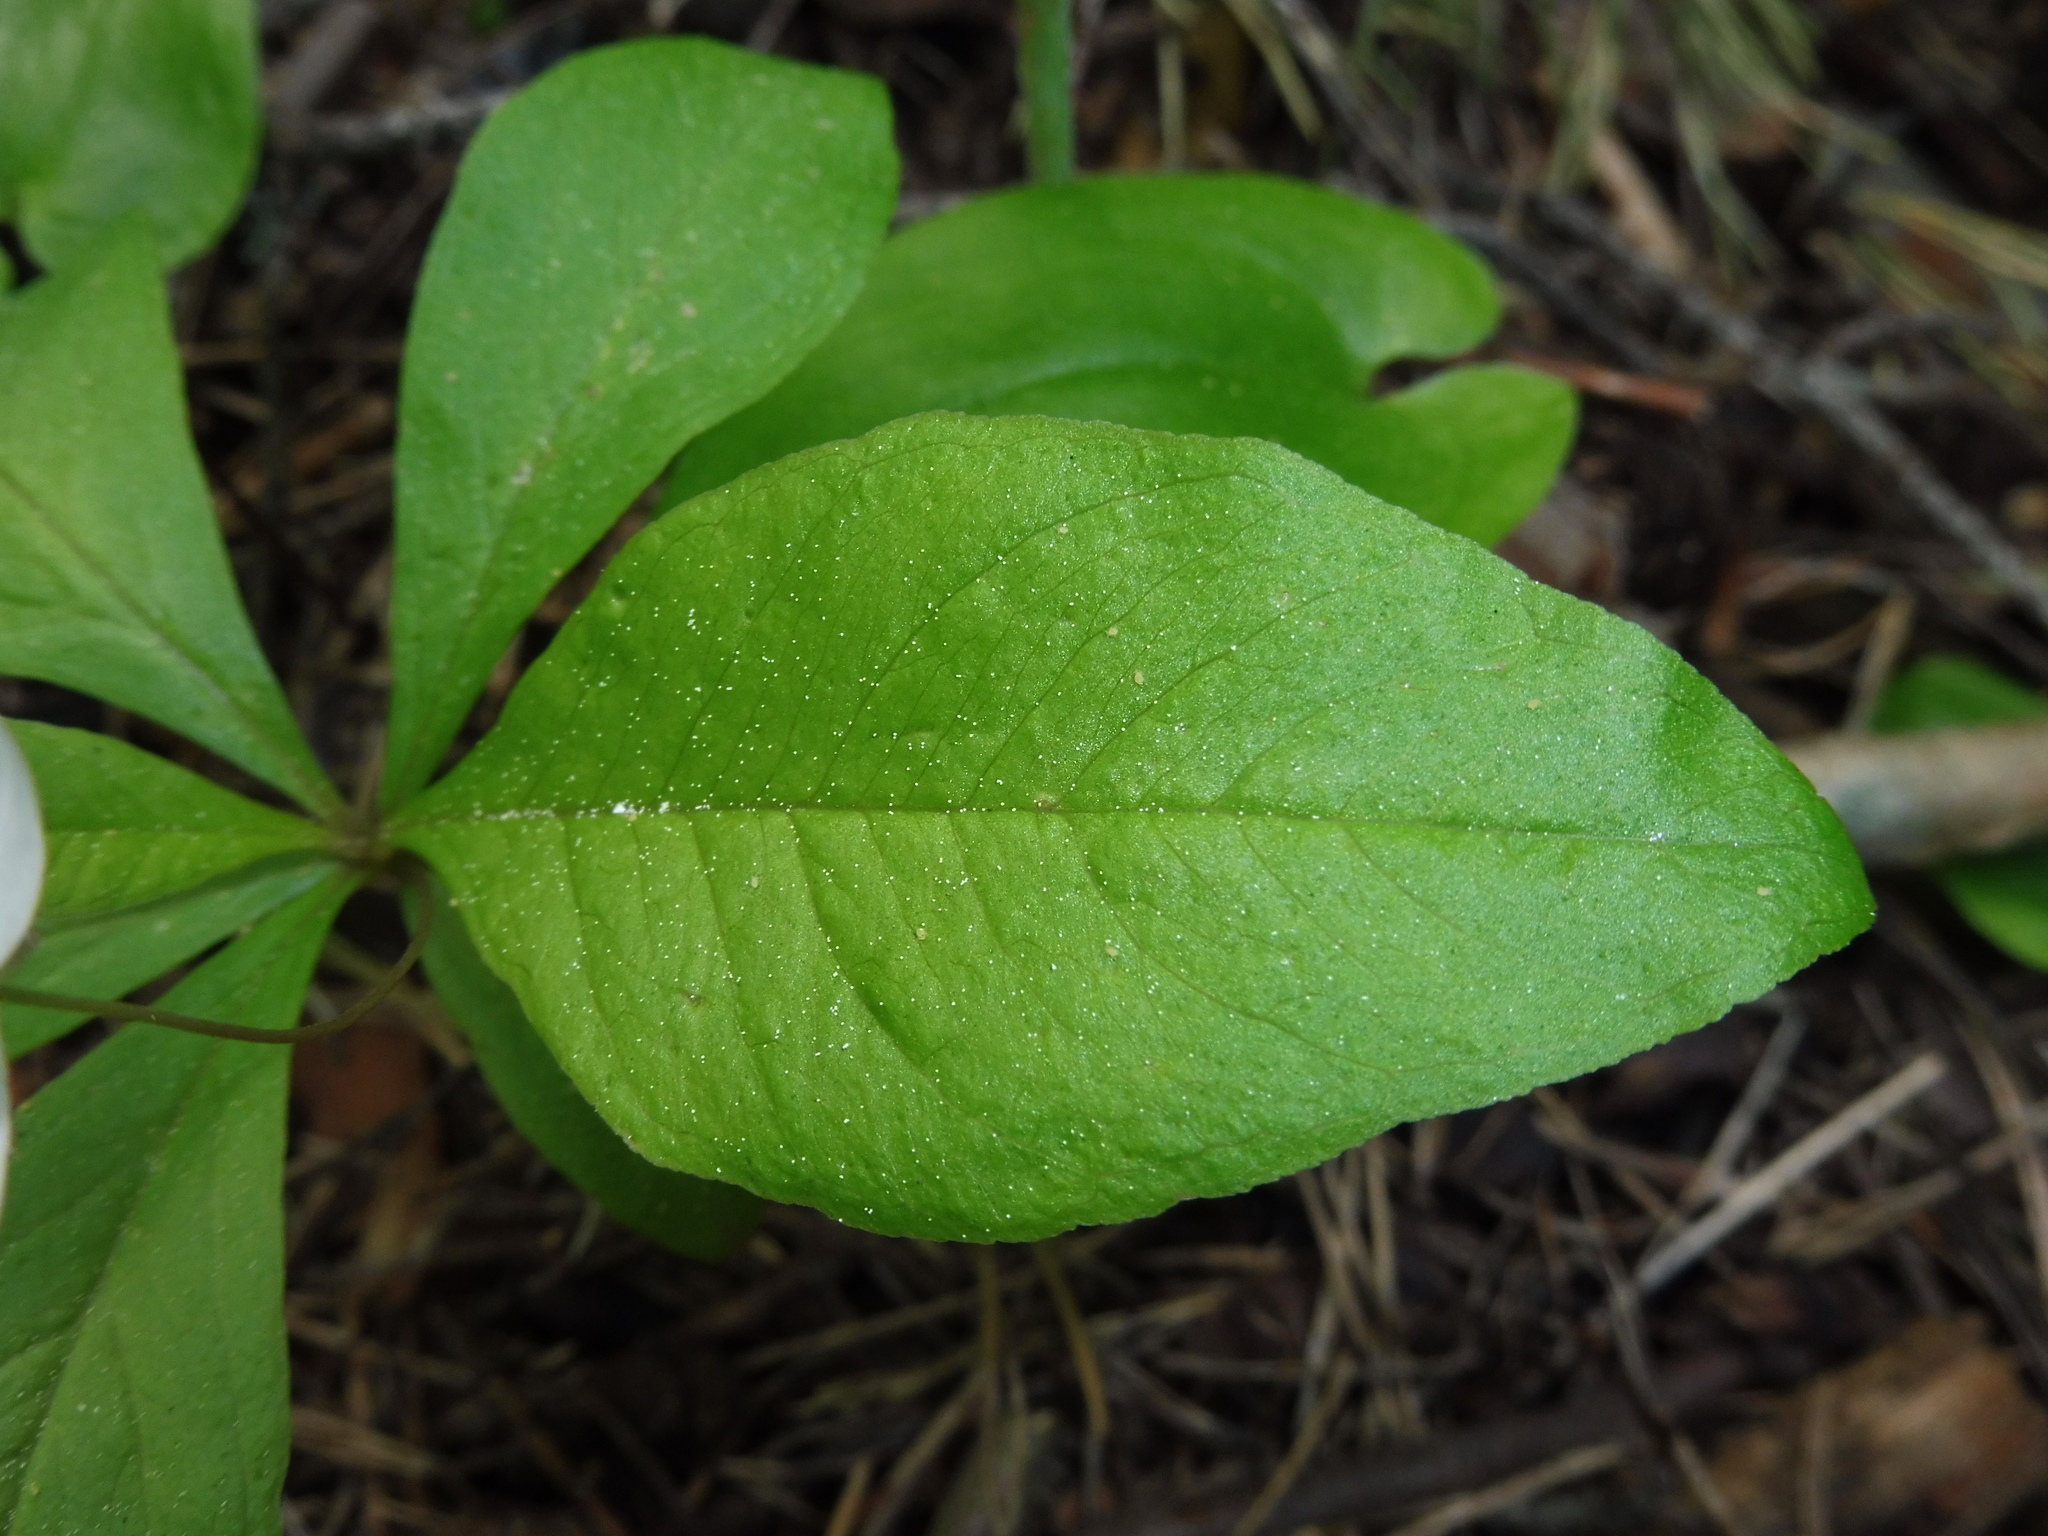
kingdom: Plantae
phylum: Tracheophyta
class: Magnoliopsida
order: Ericales
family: Primulaceae
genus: Lysimachia
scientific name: Lysimachia europaea
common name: Arctic starflower
